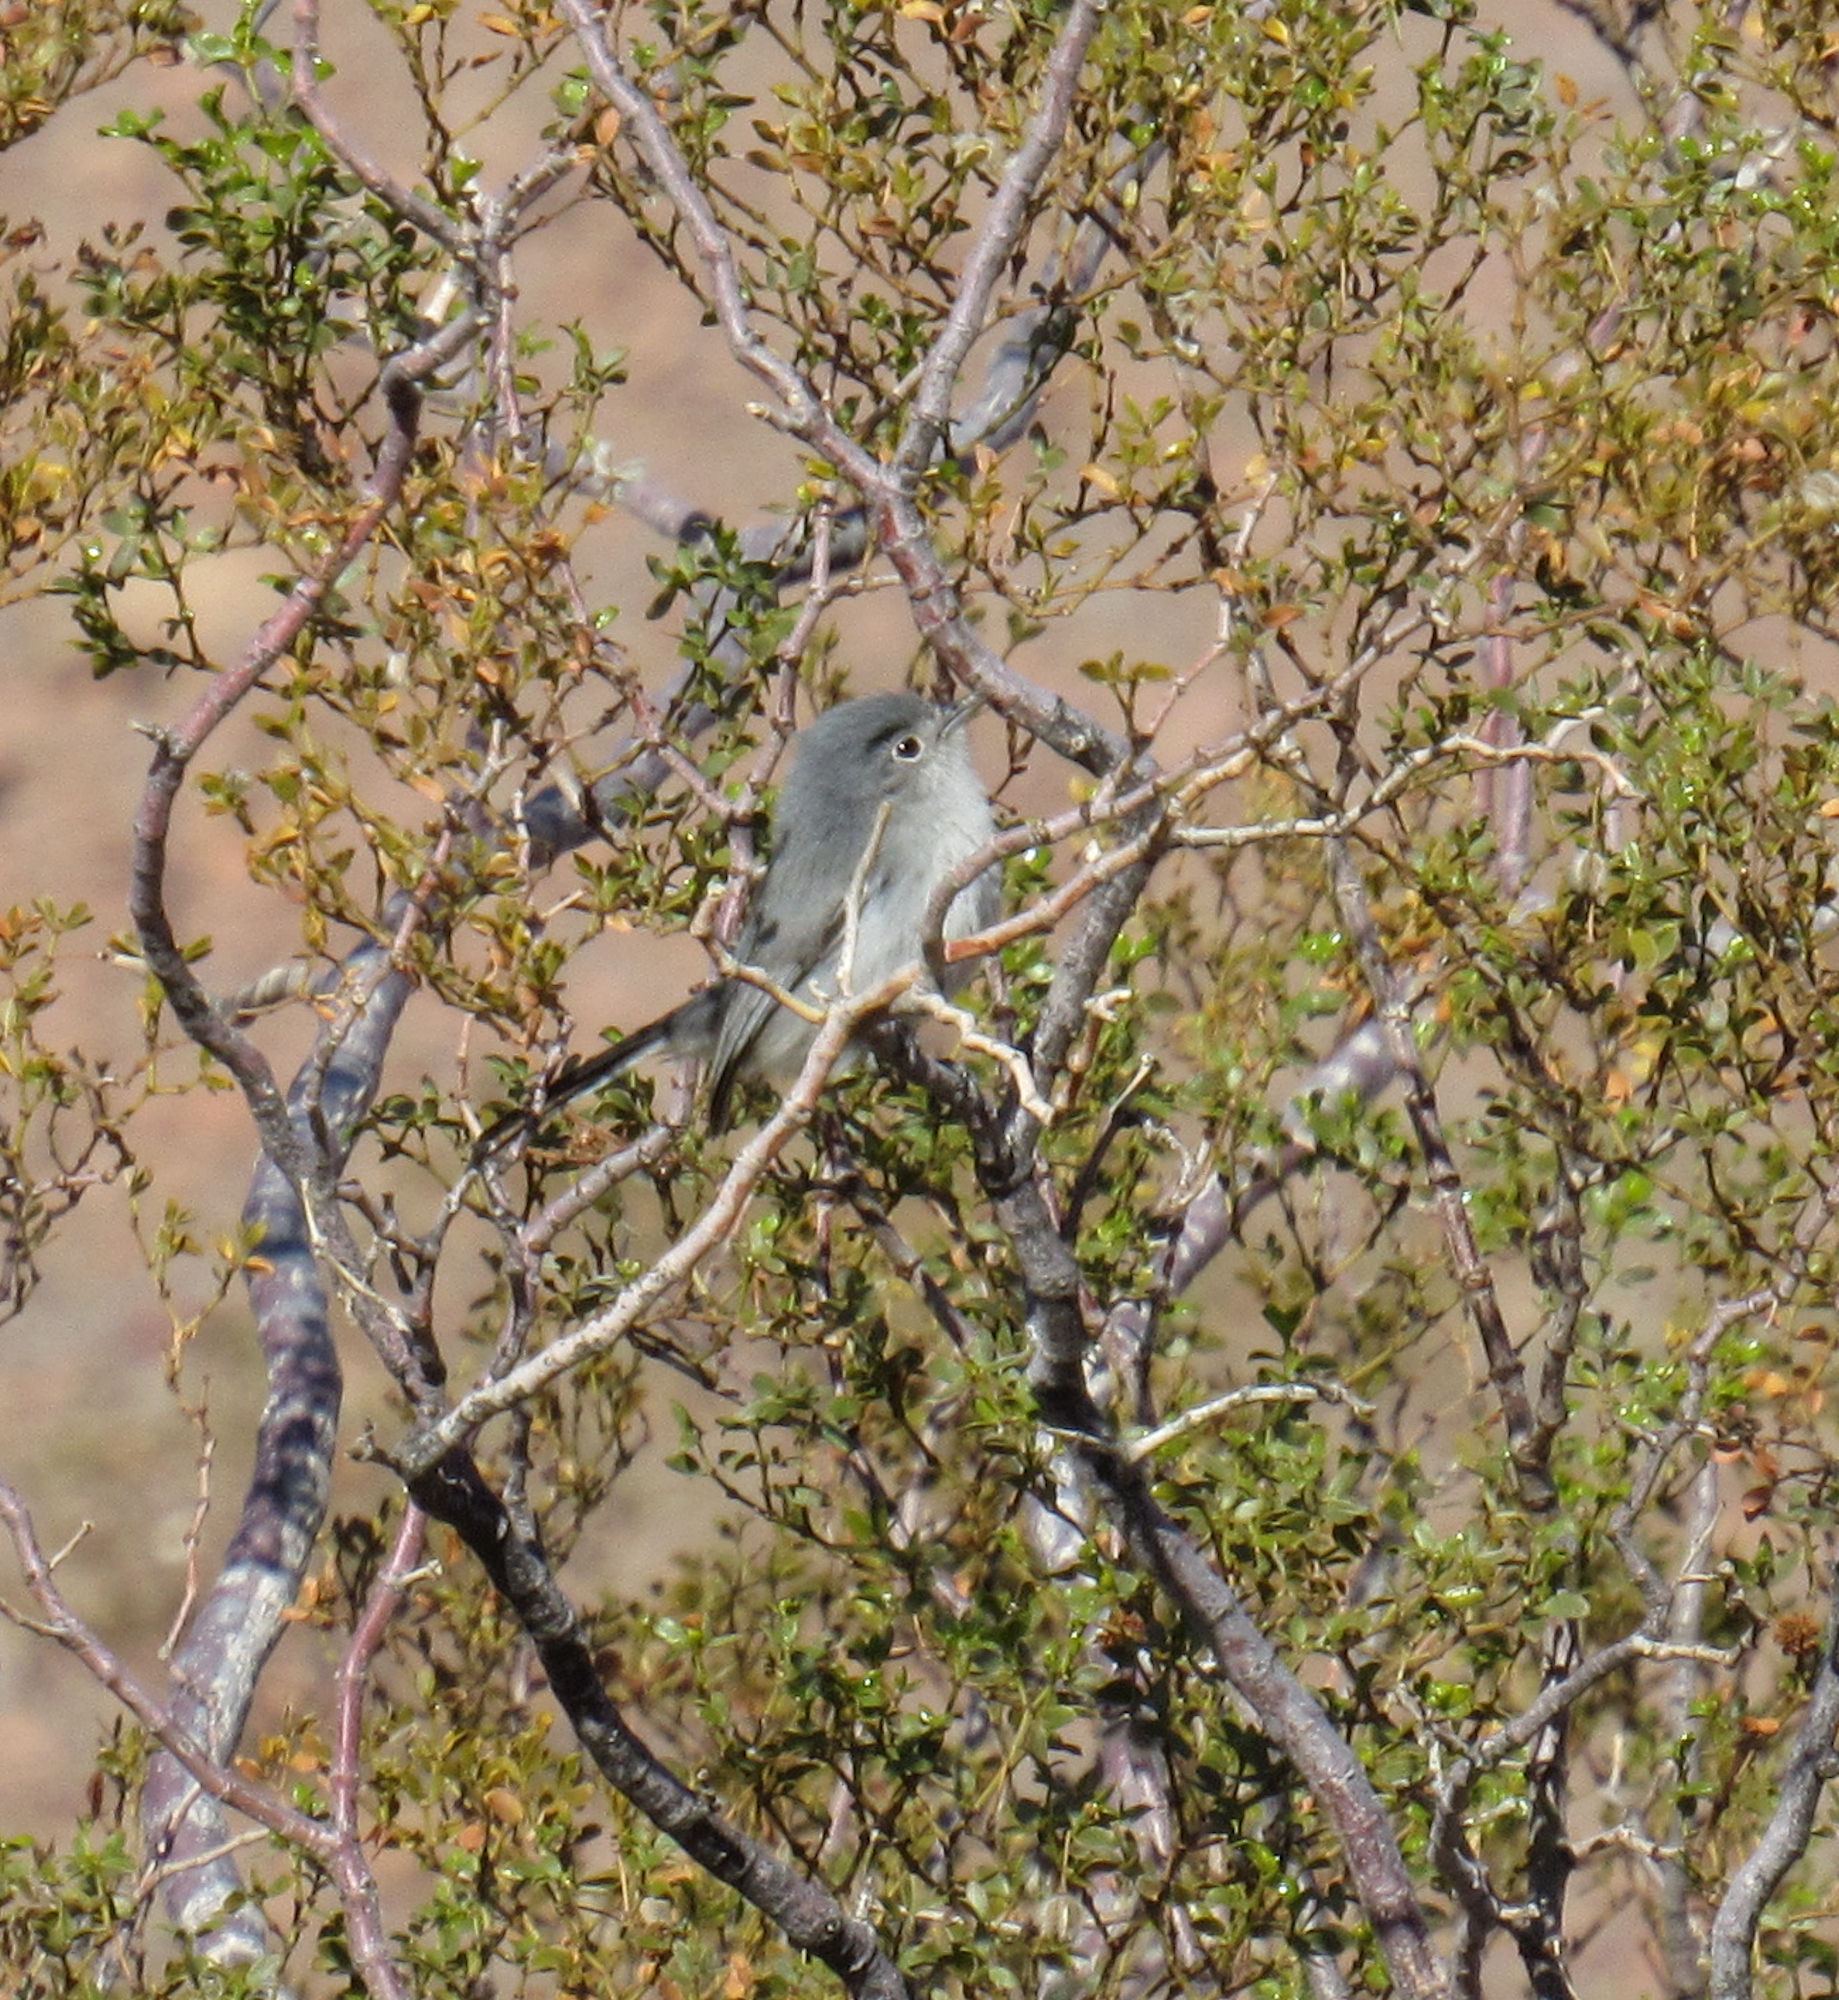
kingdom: Animalia
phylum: Chordata
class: Aves
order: Passeriformes
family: Polioptilidae
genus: Polioptila
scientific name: Polioptila melanura
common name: Black-tailed gnatcatcher
